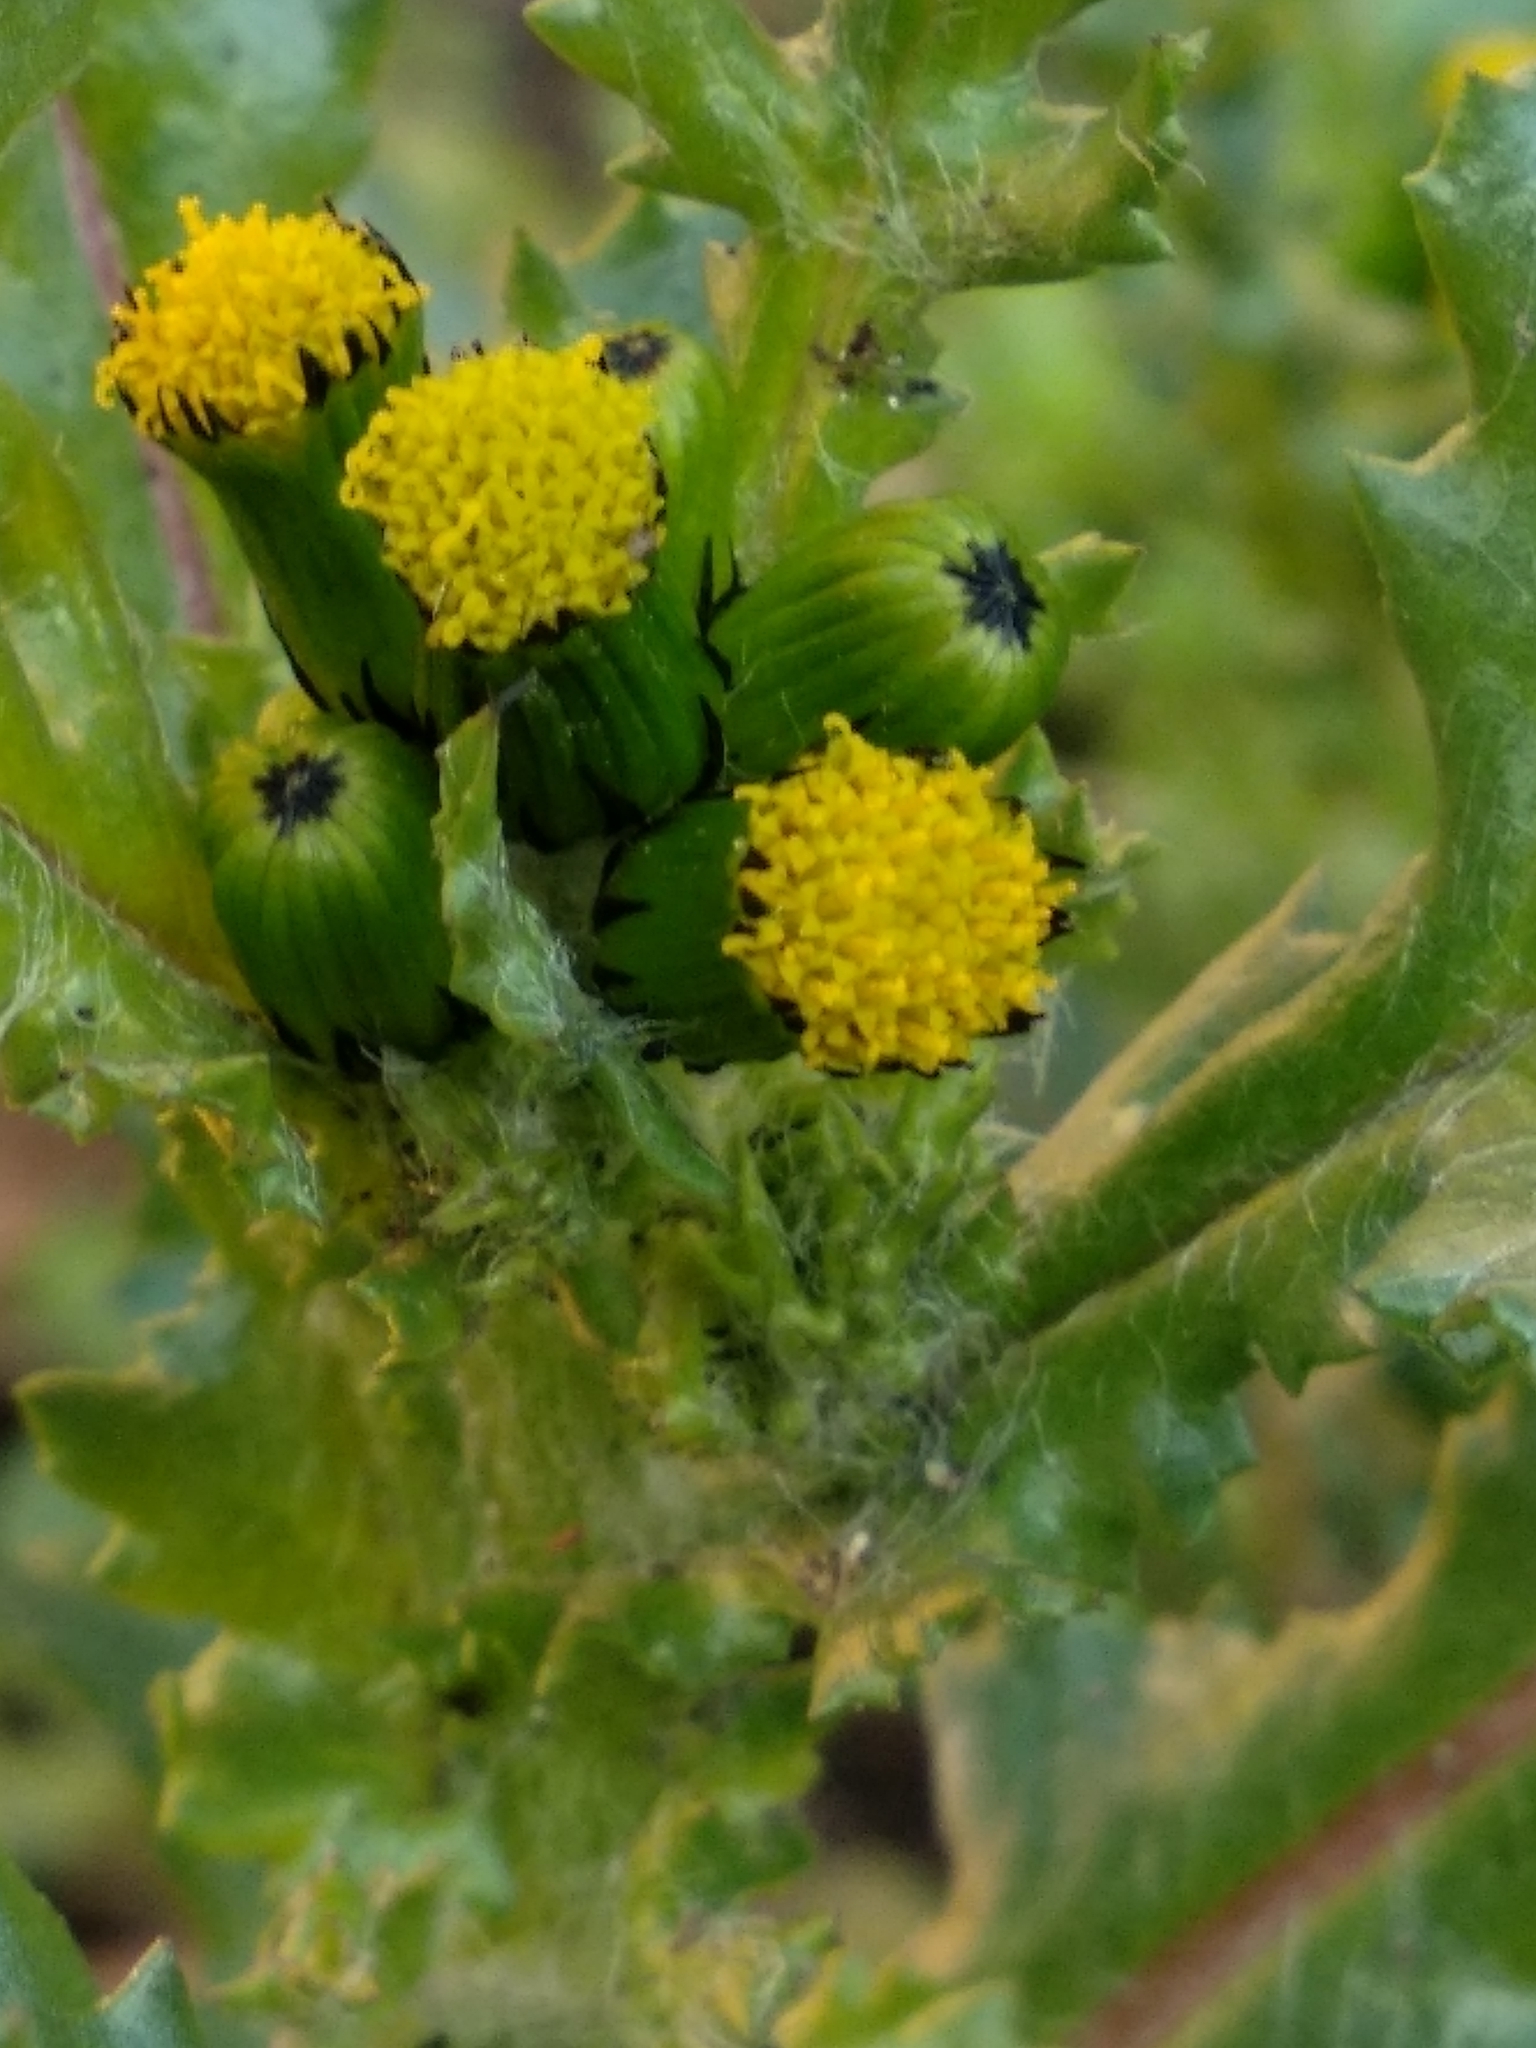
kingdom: Plantae
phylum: Tracheophyta
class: Magnoliopsida
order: Asterales
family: Asteraceae
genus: Senecio
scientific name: Senecio vulgaris
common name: Old-man-in-the-spring
